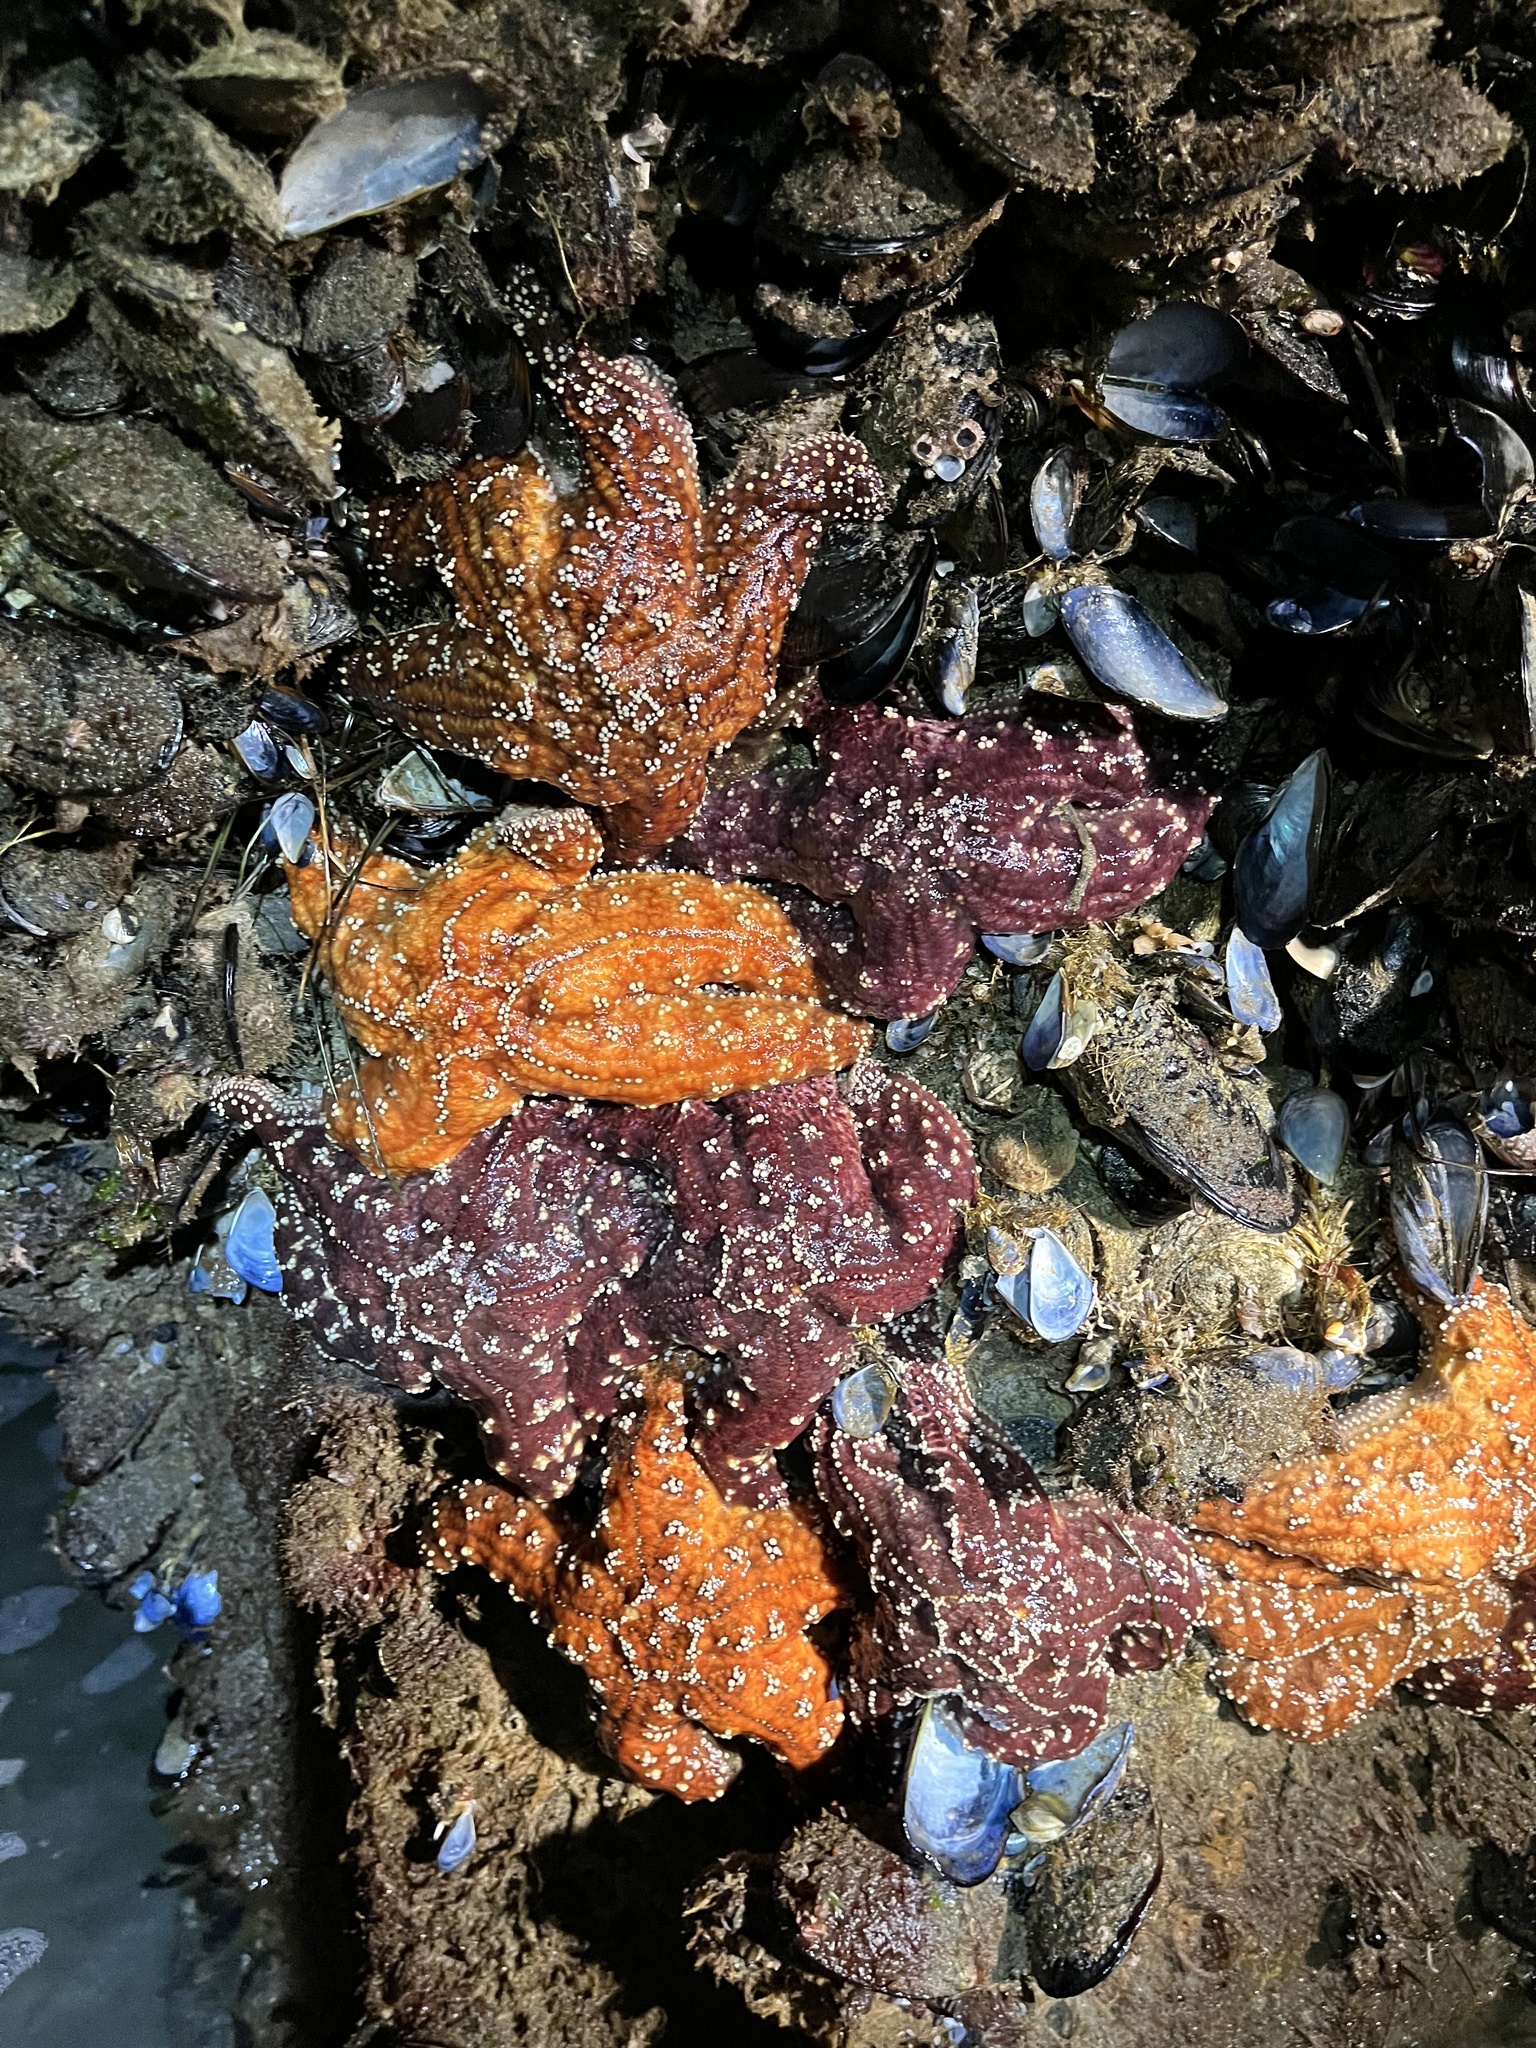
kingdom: Animalia
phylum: Echinodermata
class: Asteroidea
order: Forcipulatida
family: Asteriidae
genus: Pisaster
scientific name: Pisaster ochraceus
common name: Ochre stars
